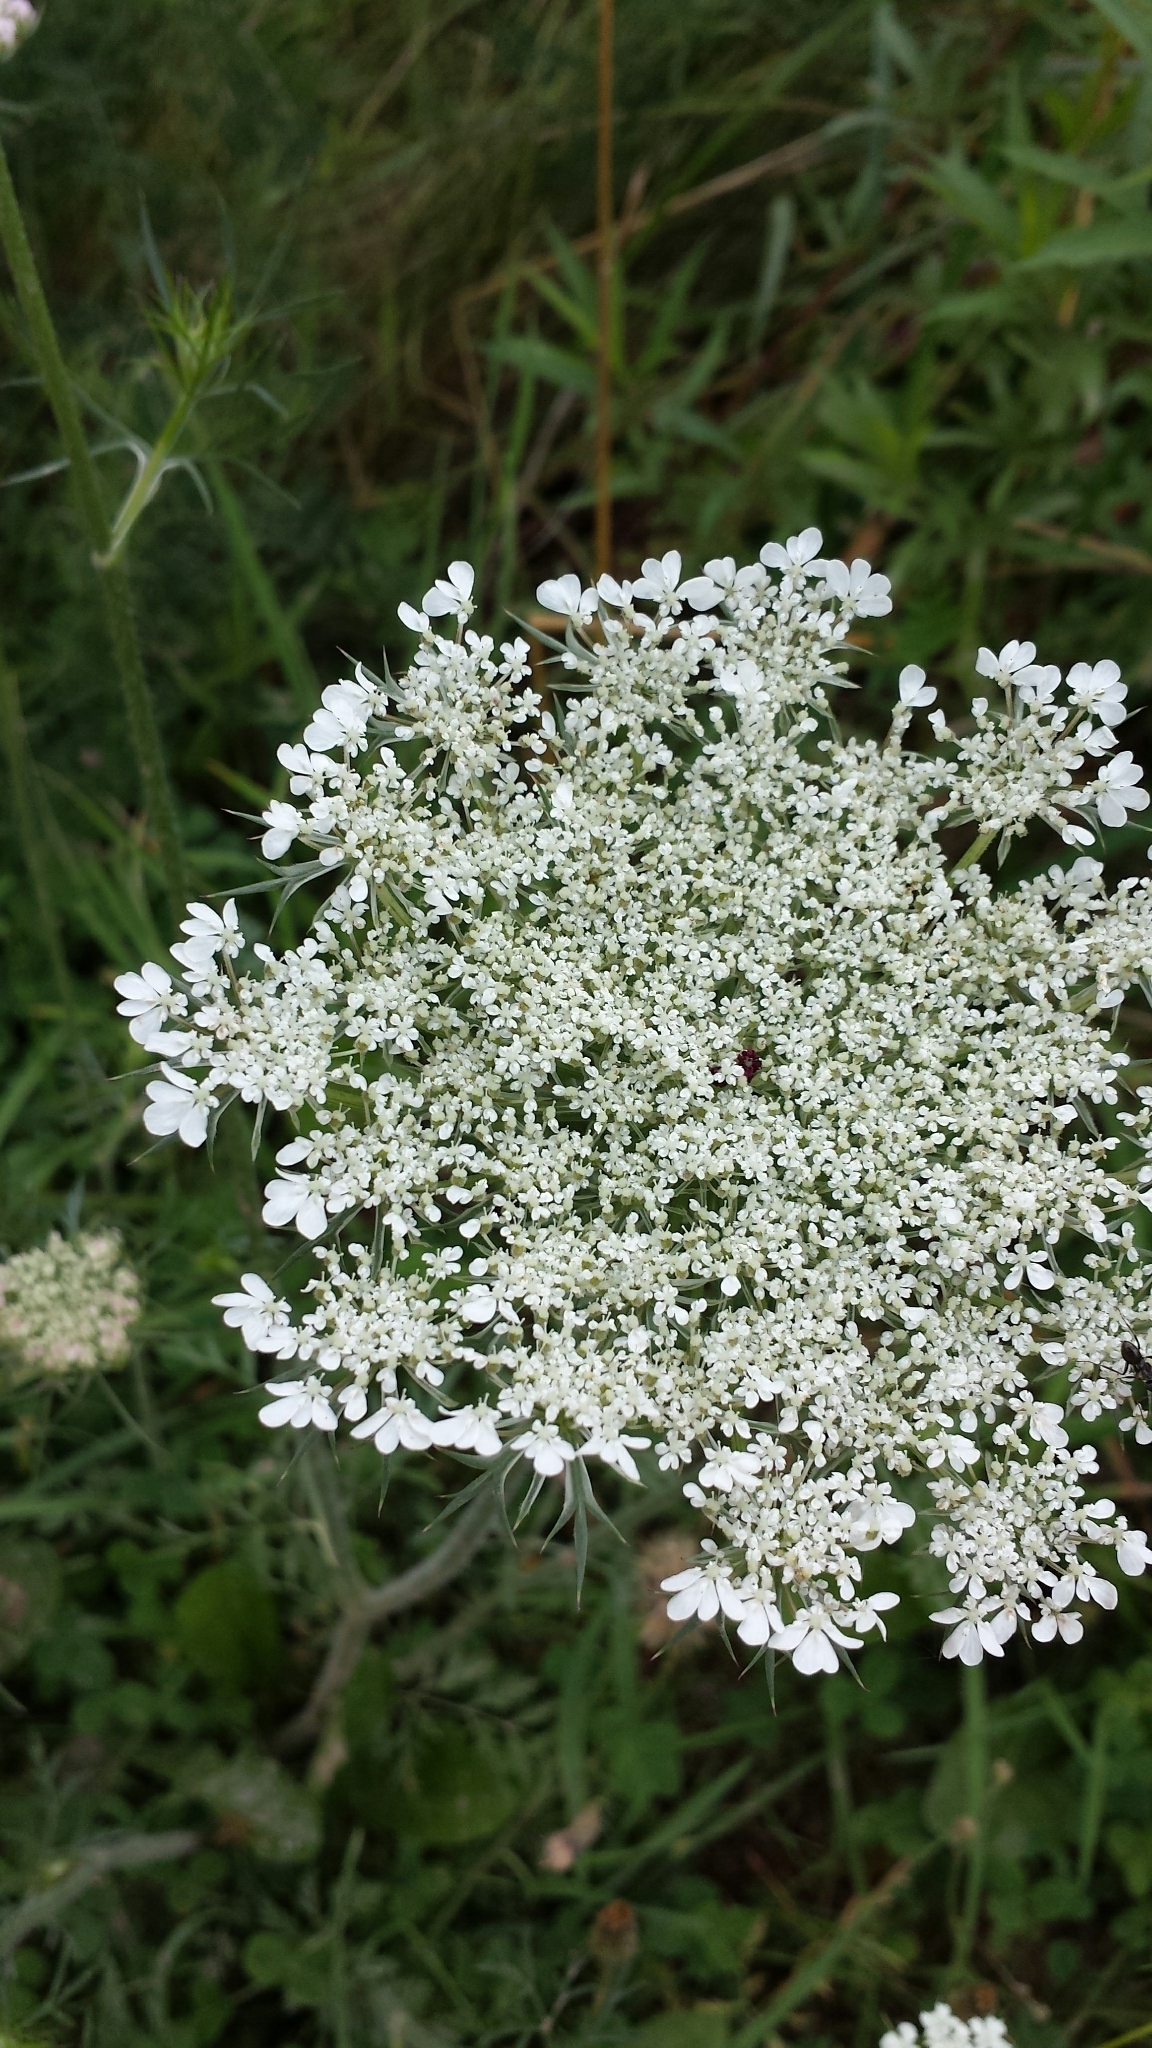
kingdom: Plantae
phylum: Tracheophyta
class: Magnoliopsida
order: Apiales
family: Apiaceae
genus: Daucus
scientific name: Daucus carota
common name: Wild carrot
